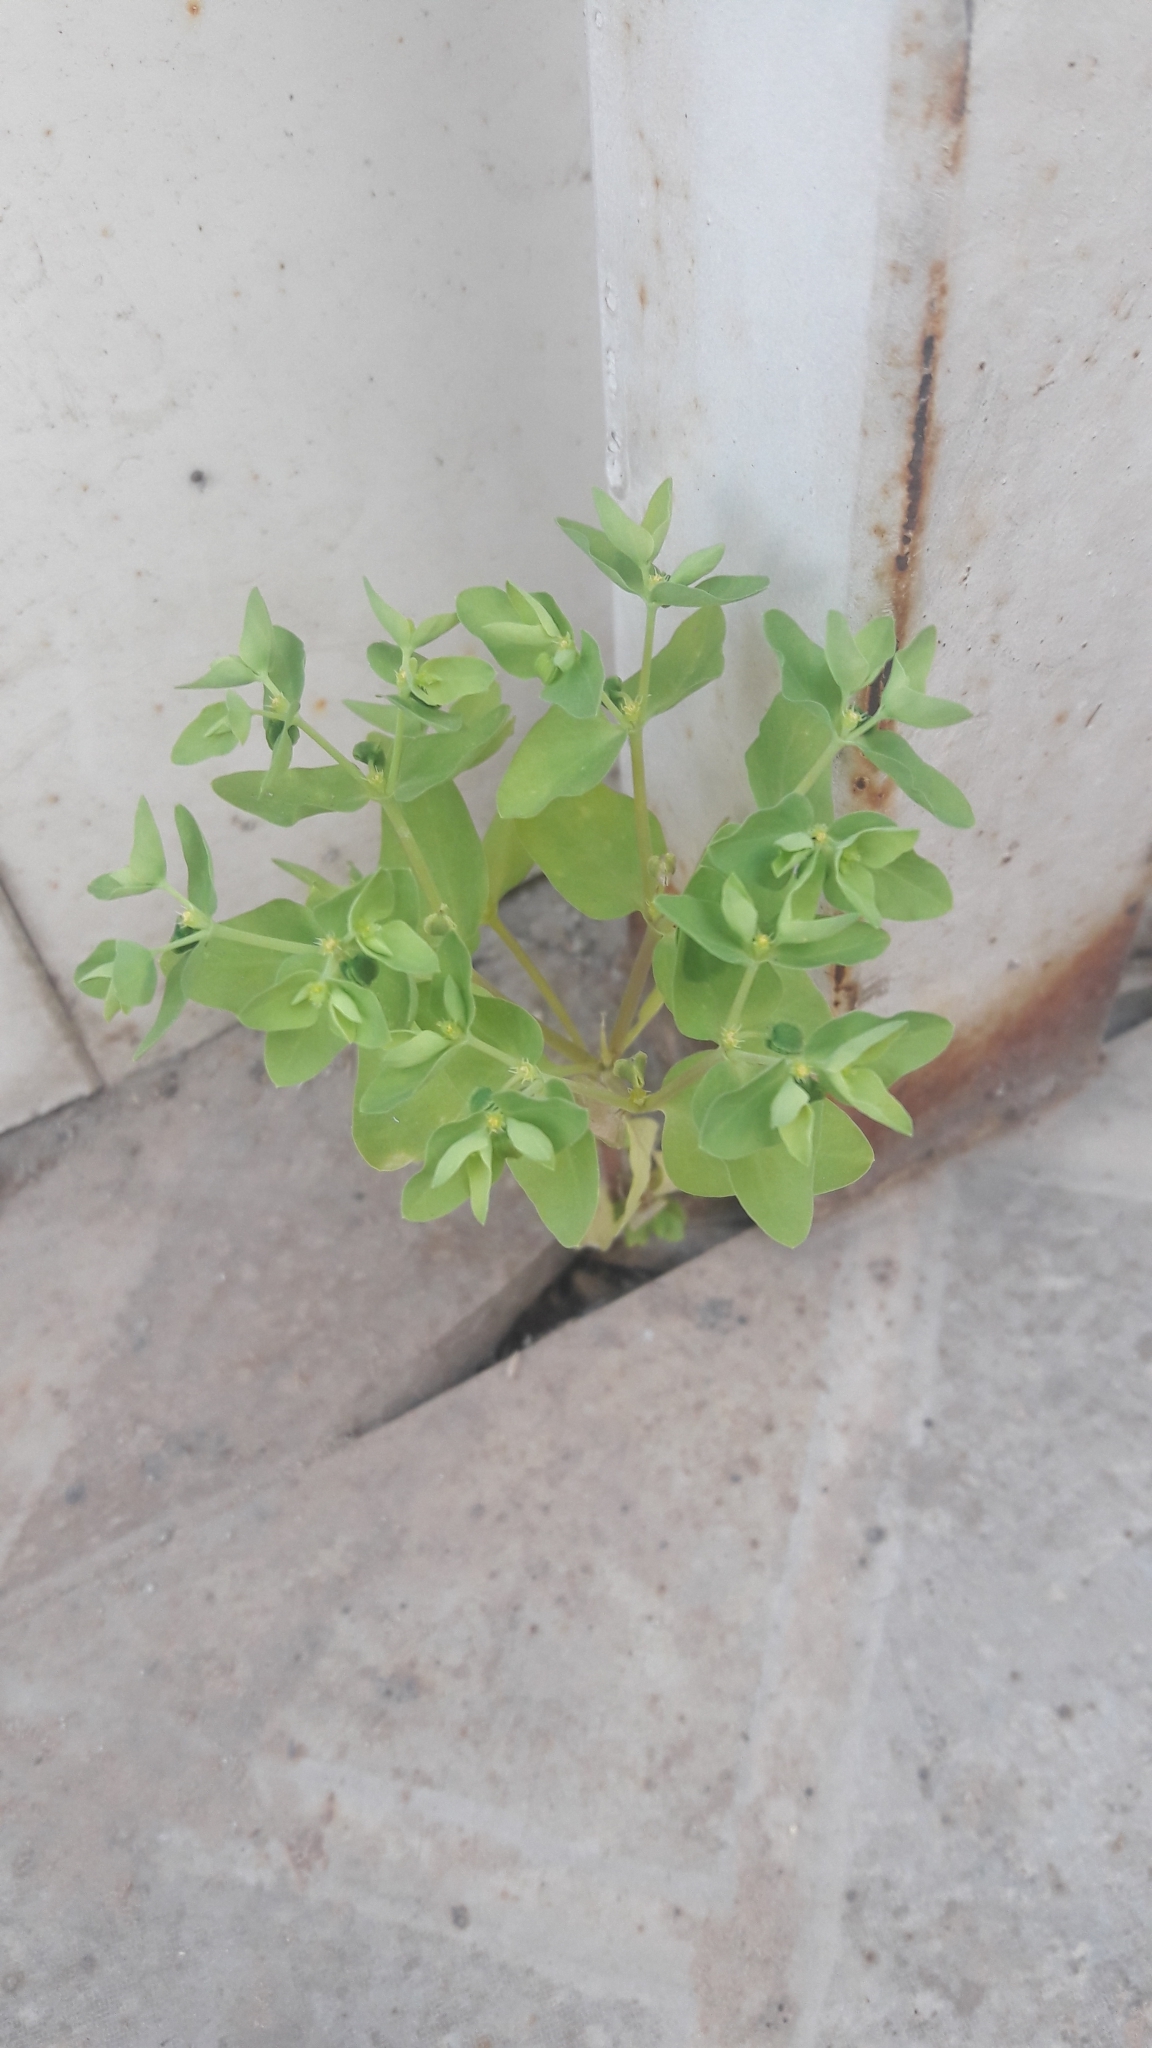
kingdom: Plantae
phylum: Tracheophyta
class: Magnoliopsida
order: Malpighiales
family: Euphorbiaceae
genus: Euphorbia
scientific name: Euphorbia peplus
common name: Petty spurge
